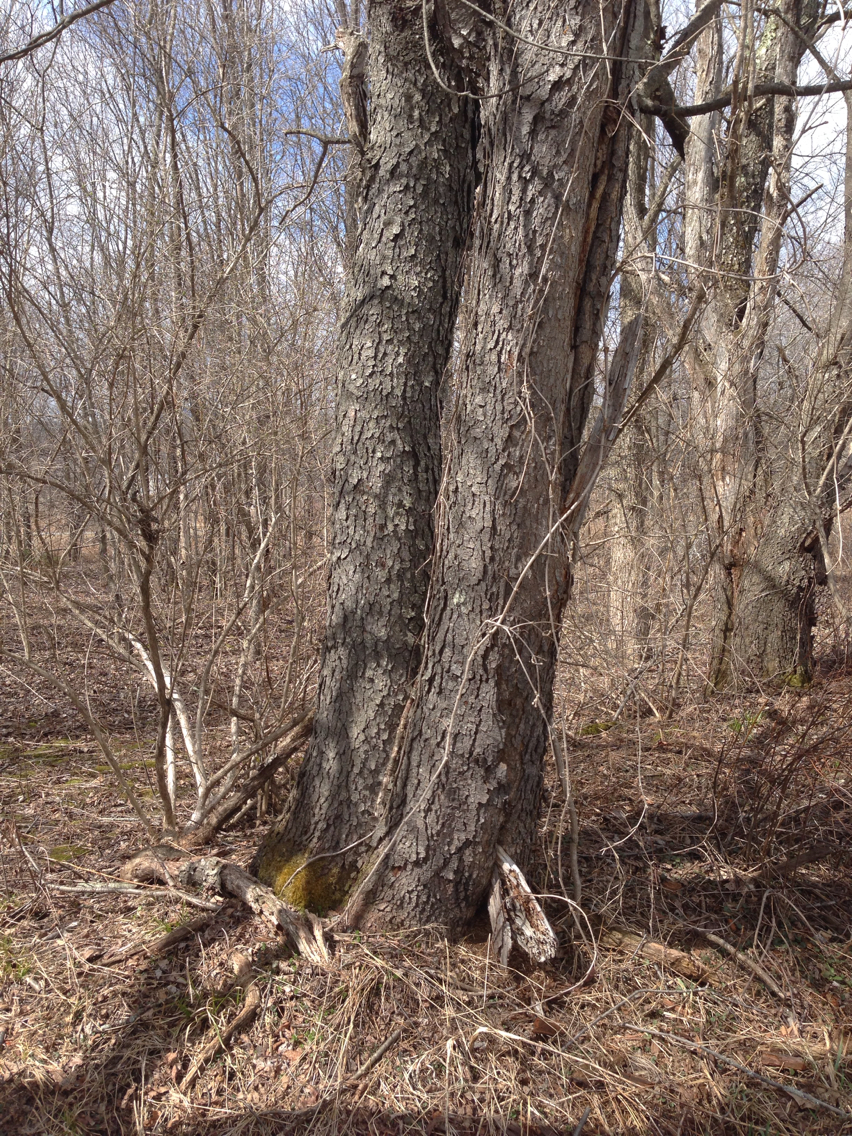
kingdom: Plantae
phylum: Tracheophyta
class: Magnoliopsida
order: Rosales
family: Rosaceae
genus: Prunus
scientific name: Prunus serotina
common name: Black cherry
